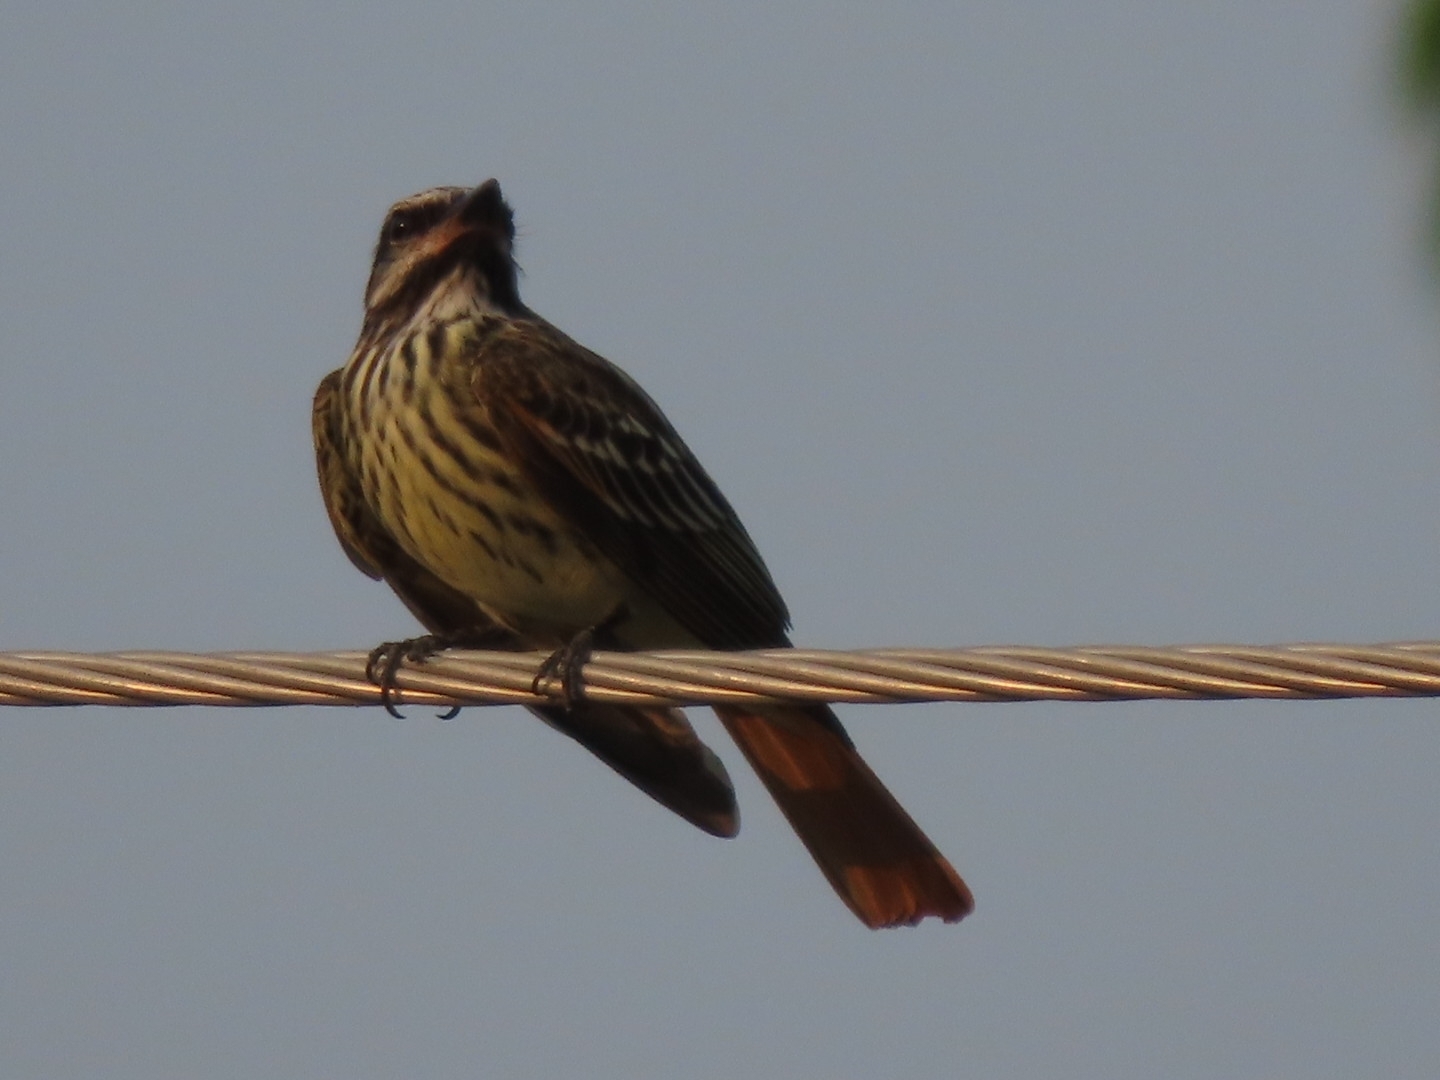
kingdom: Animalia
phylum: Chordata
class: Aves
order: Passeriformes
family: Tyrannidae
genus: Myiodynastes
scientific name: Myiodynastes luteiventris
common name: Sulphur-bellied flycatcher
